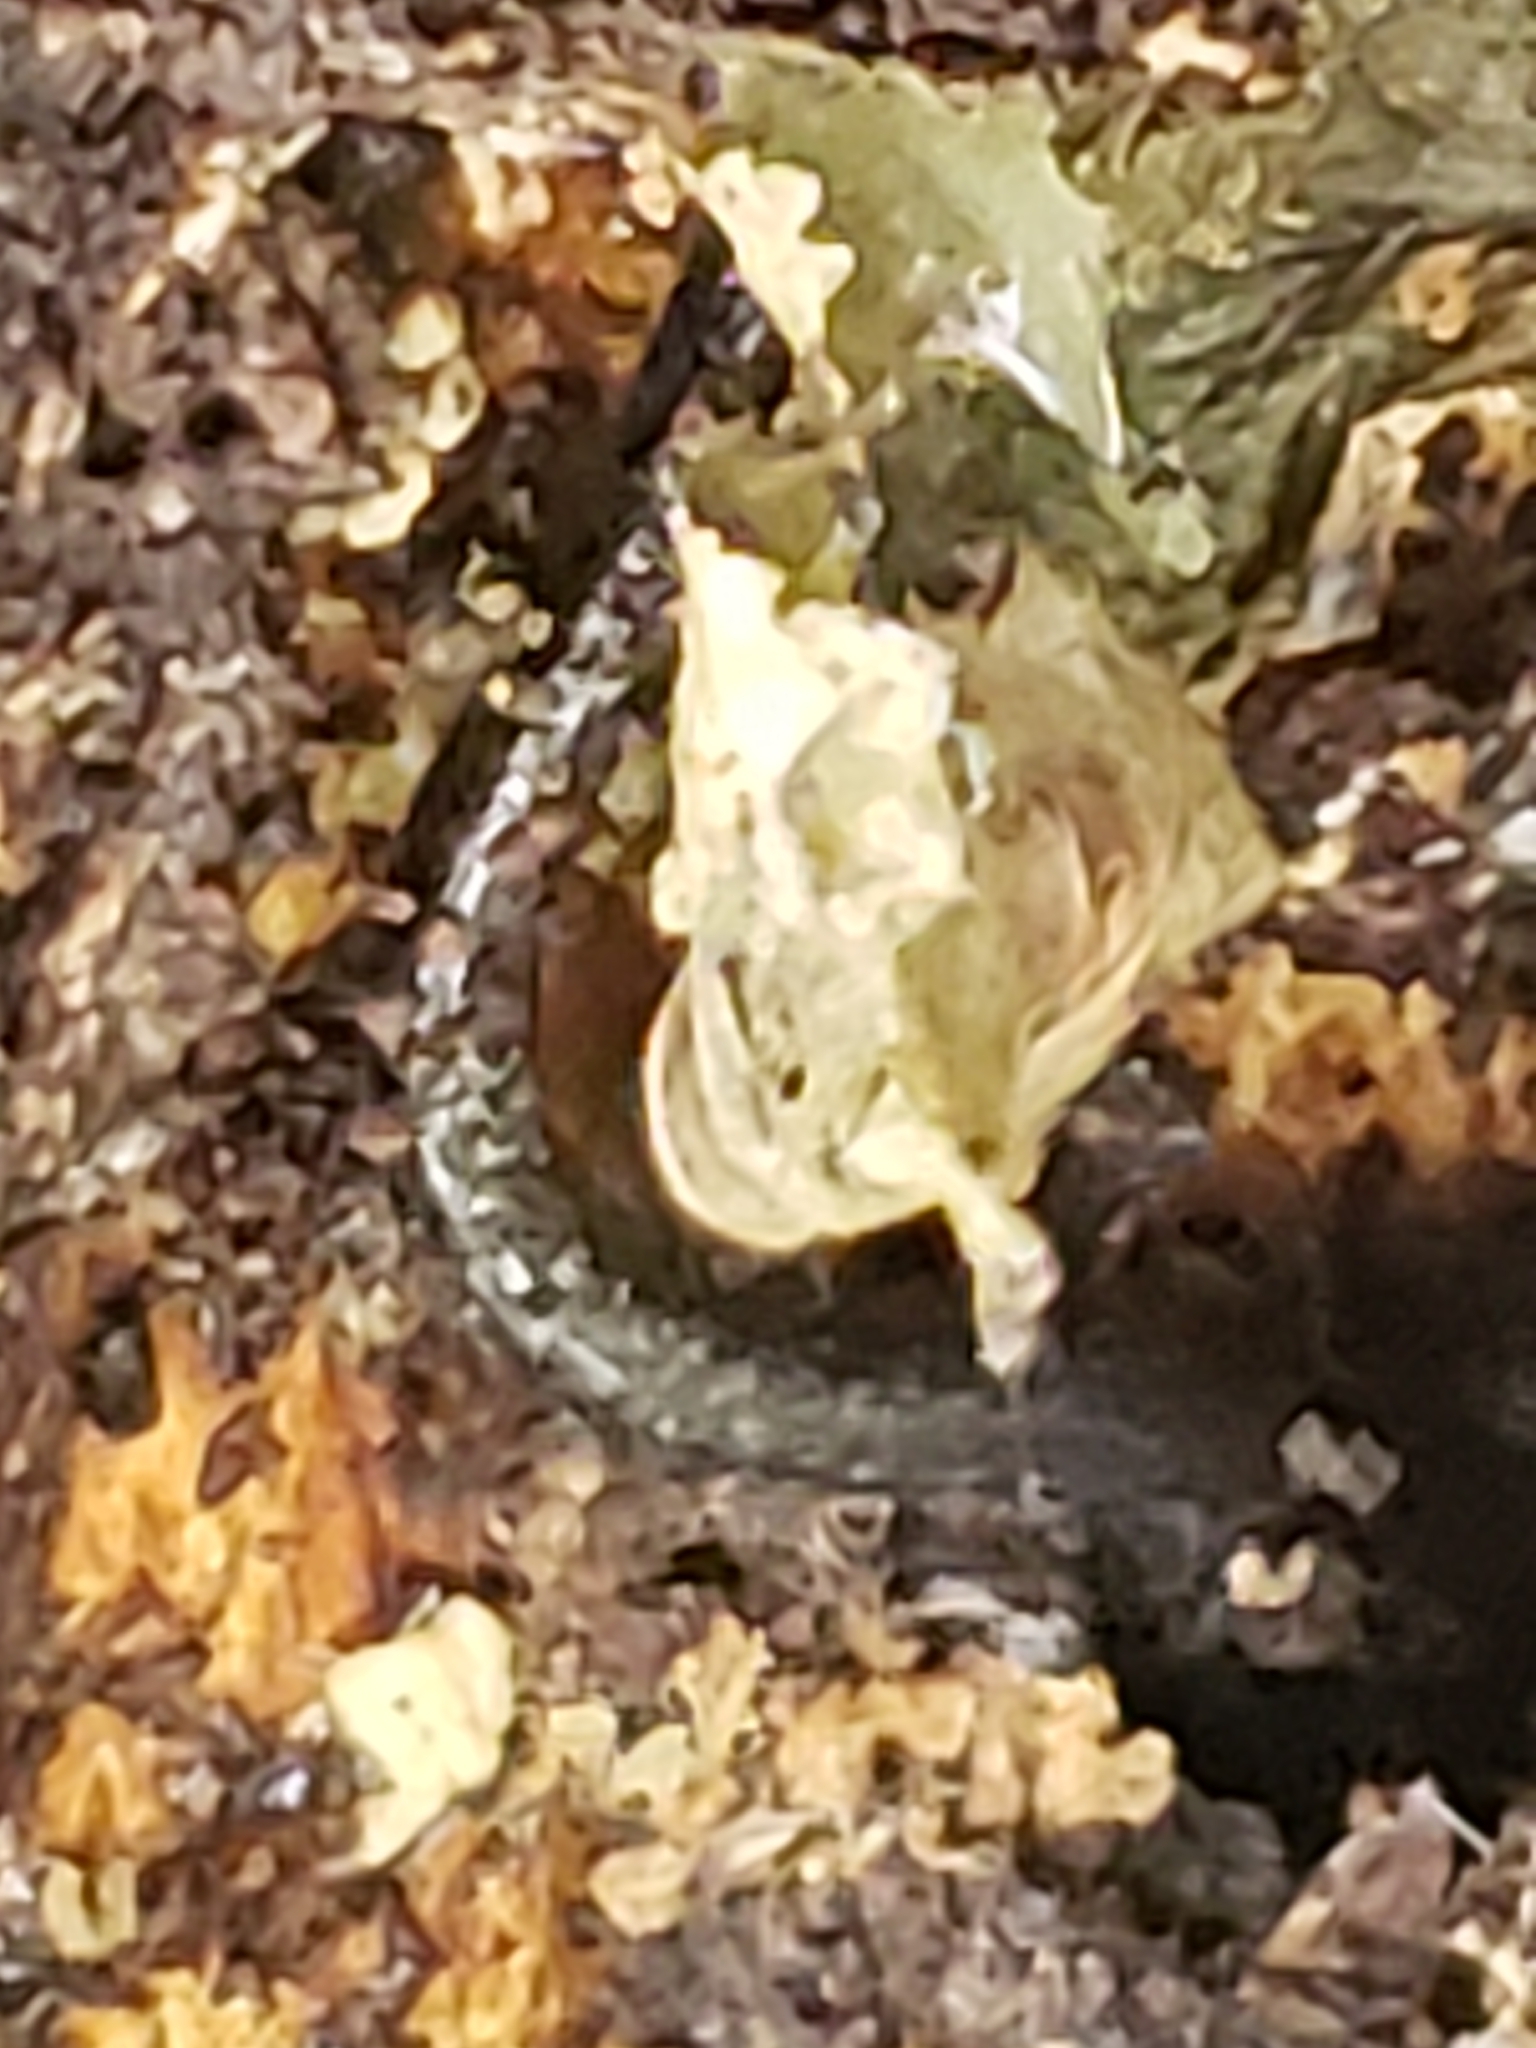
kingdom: Animalia
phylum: Chordata
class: Amphibia
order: Caudata
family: Plethodontidae
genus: Plethodon
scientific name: Plethodon cinereus
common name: Redback salamander
